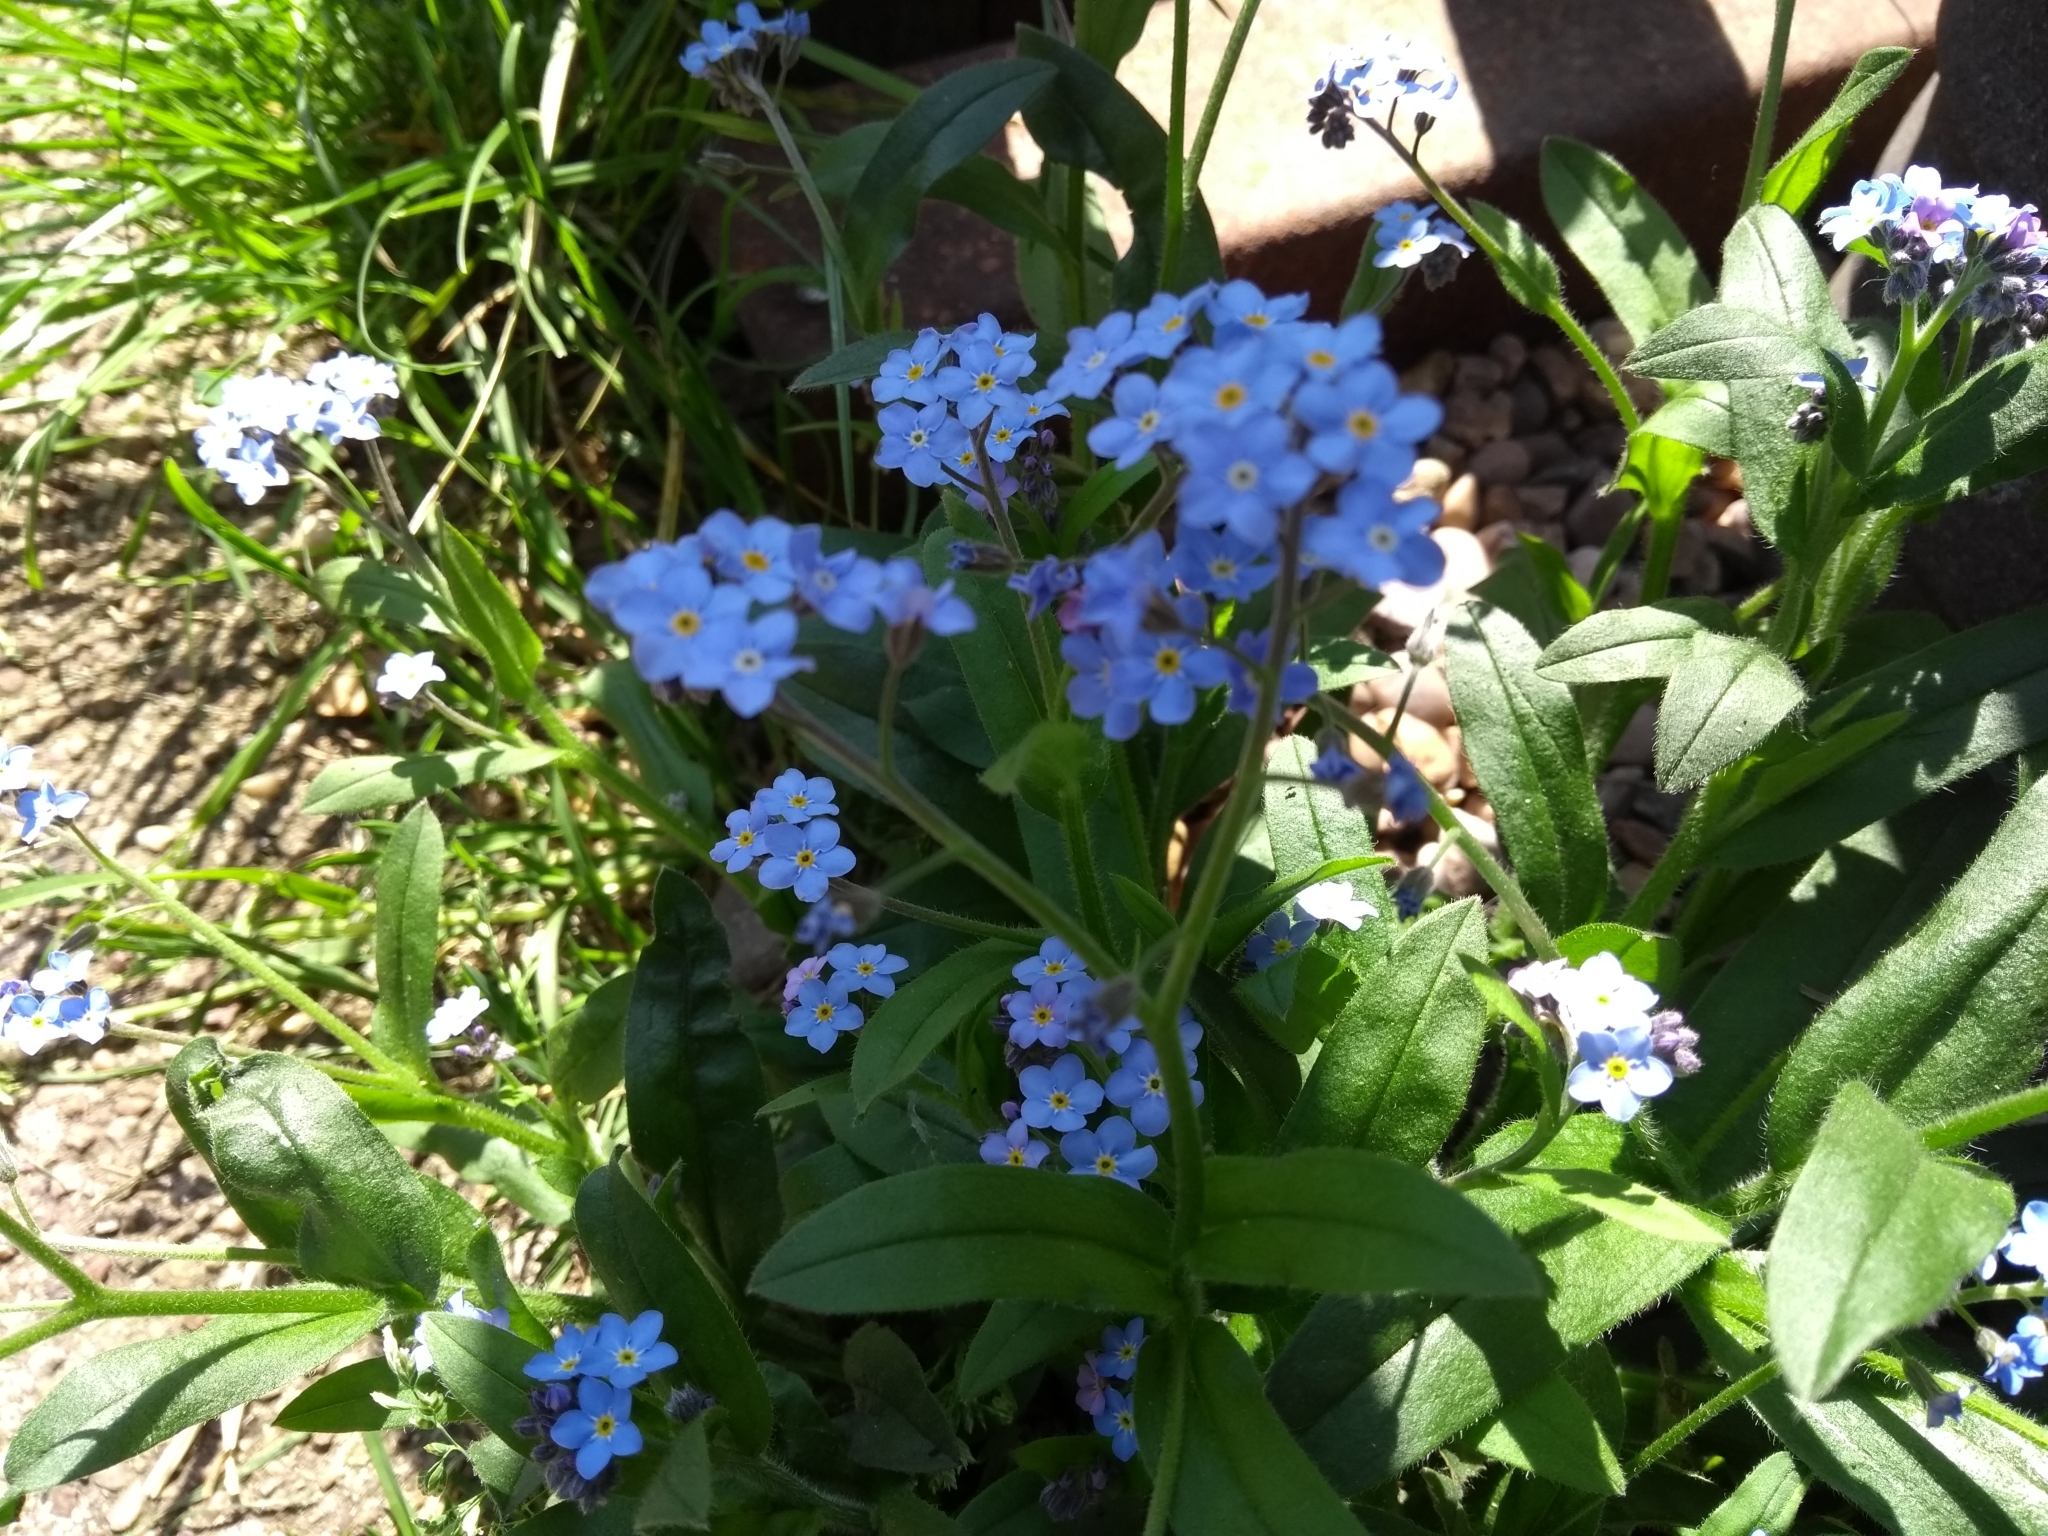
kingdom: Plantae
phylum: Tracheophyta
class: Magnoliopsida
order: Boraginales
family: Boraginaceae
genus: Myosotis
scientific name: Myosotis sylvatica
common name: Wood forget-me-not
